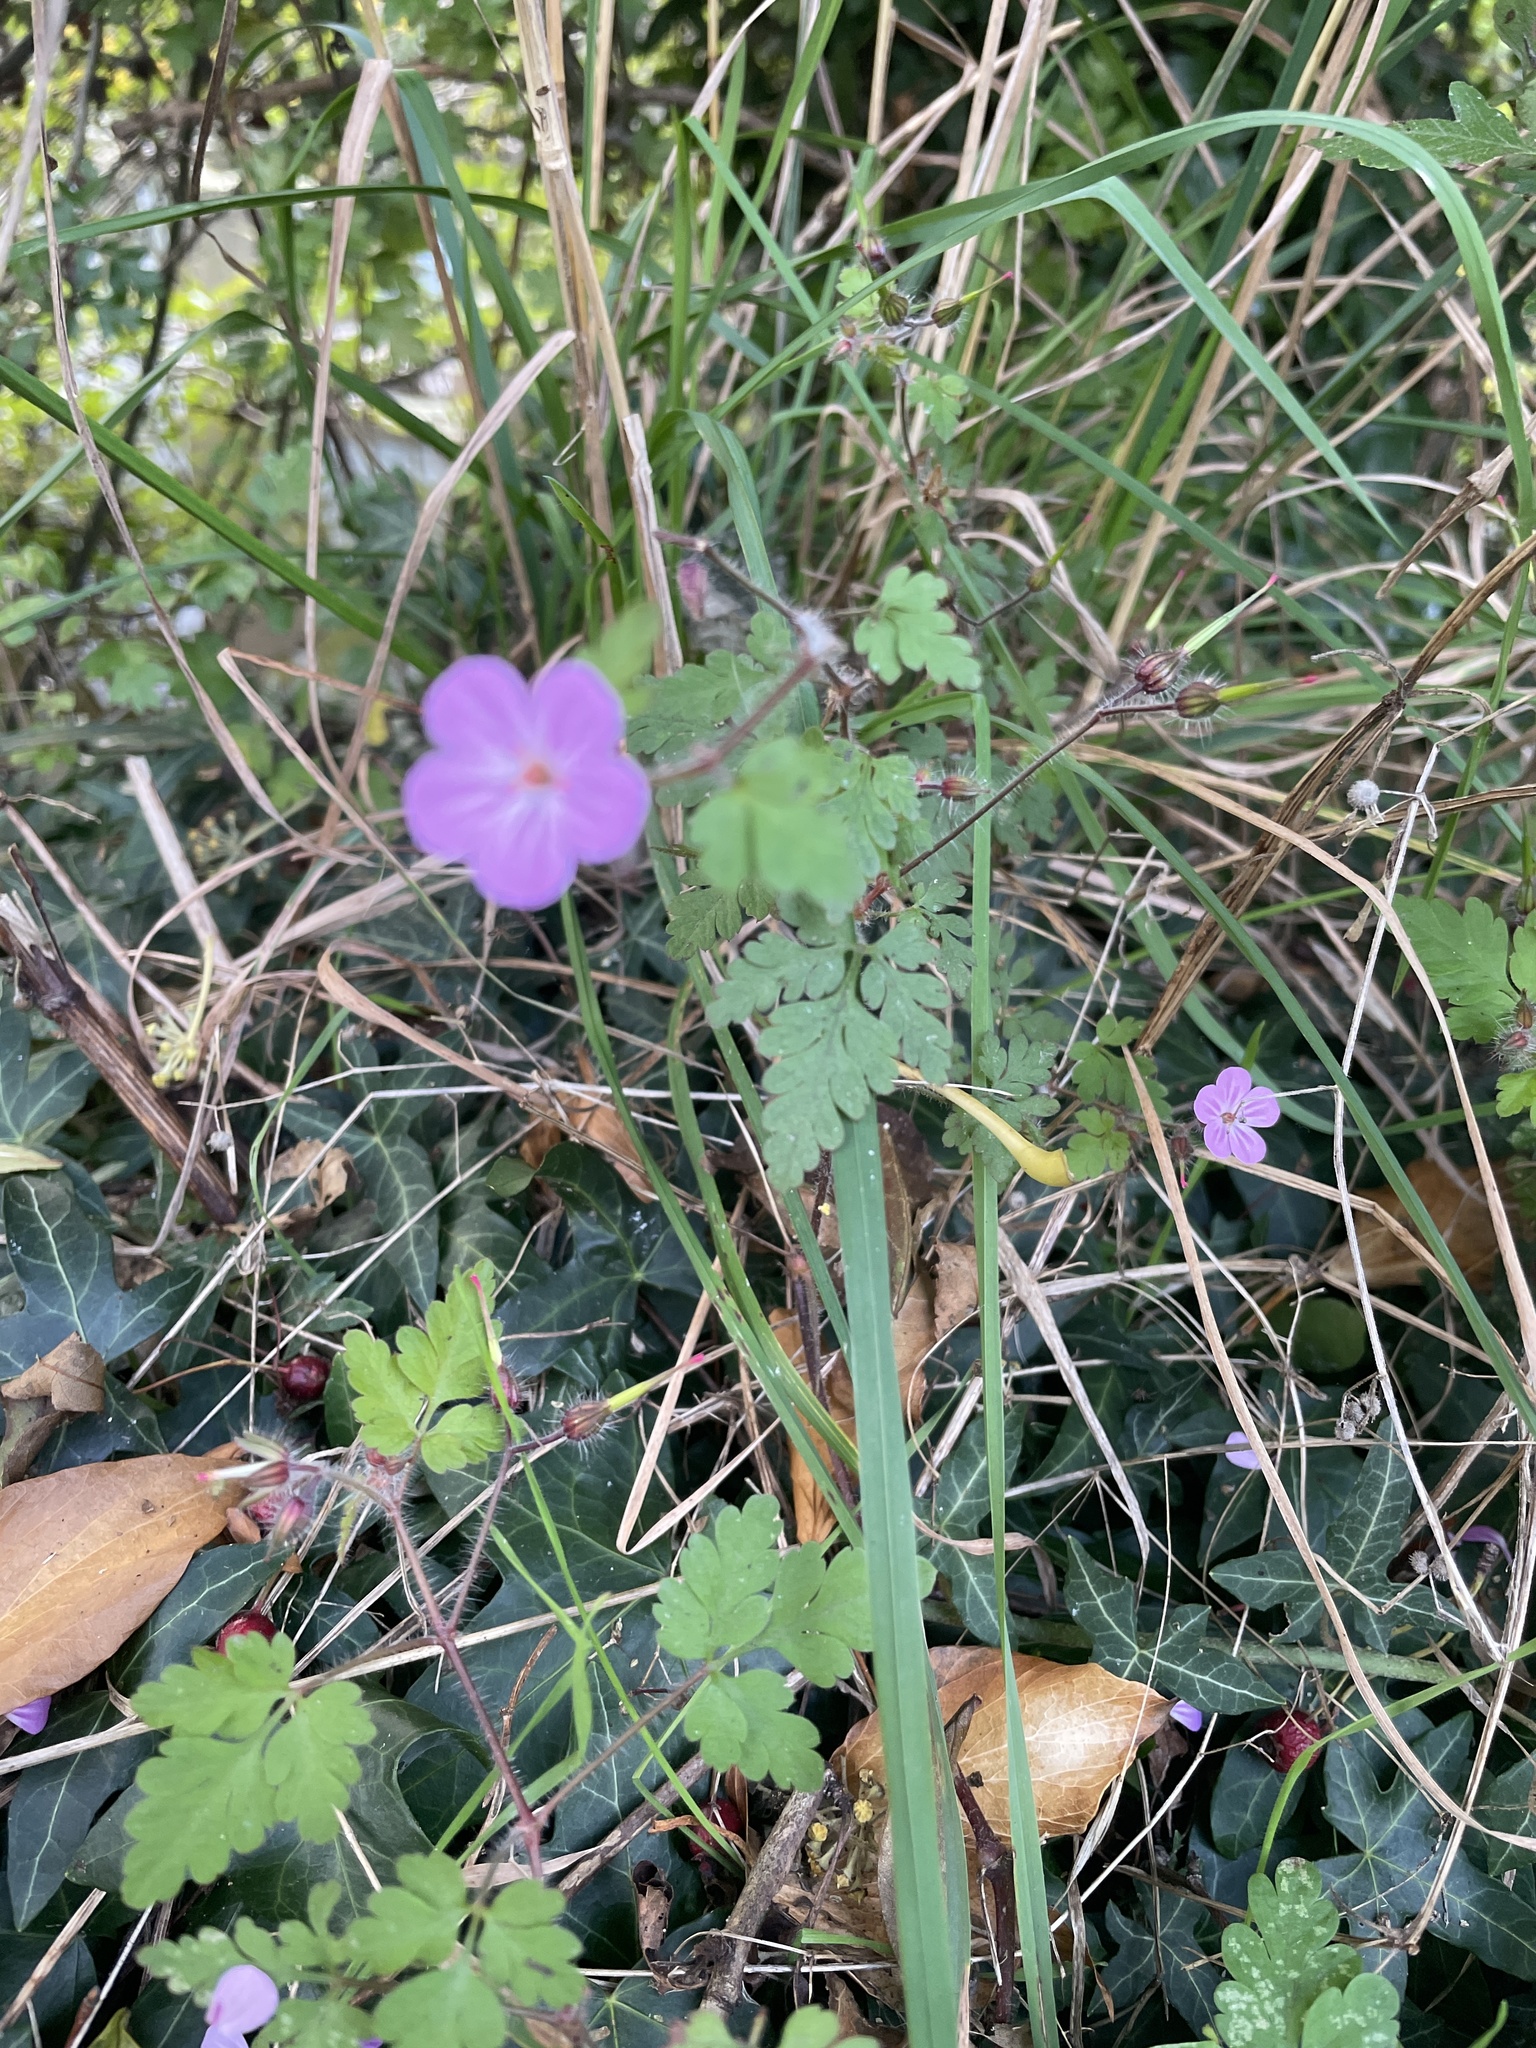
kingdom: Plantae
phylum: Tracheophyta
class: Magnoliopsida
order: Geraniales
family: Geraniaceae
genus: Geranium
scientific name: Geranium robertianum
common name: Herb-robert
